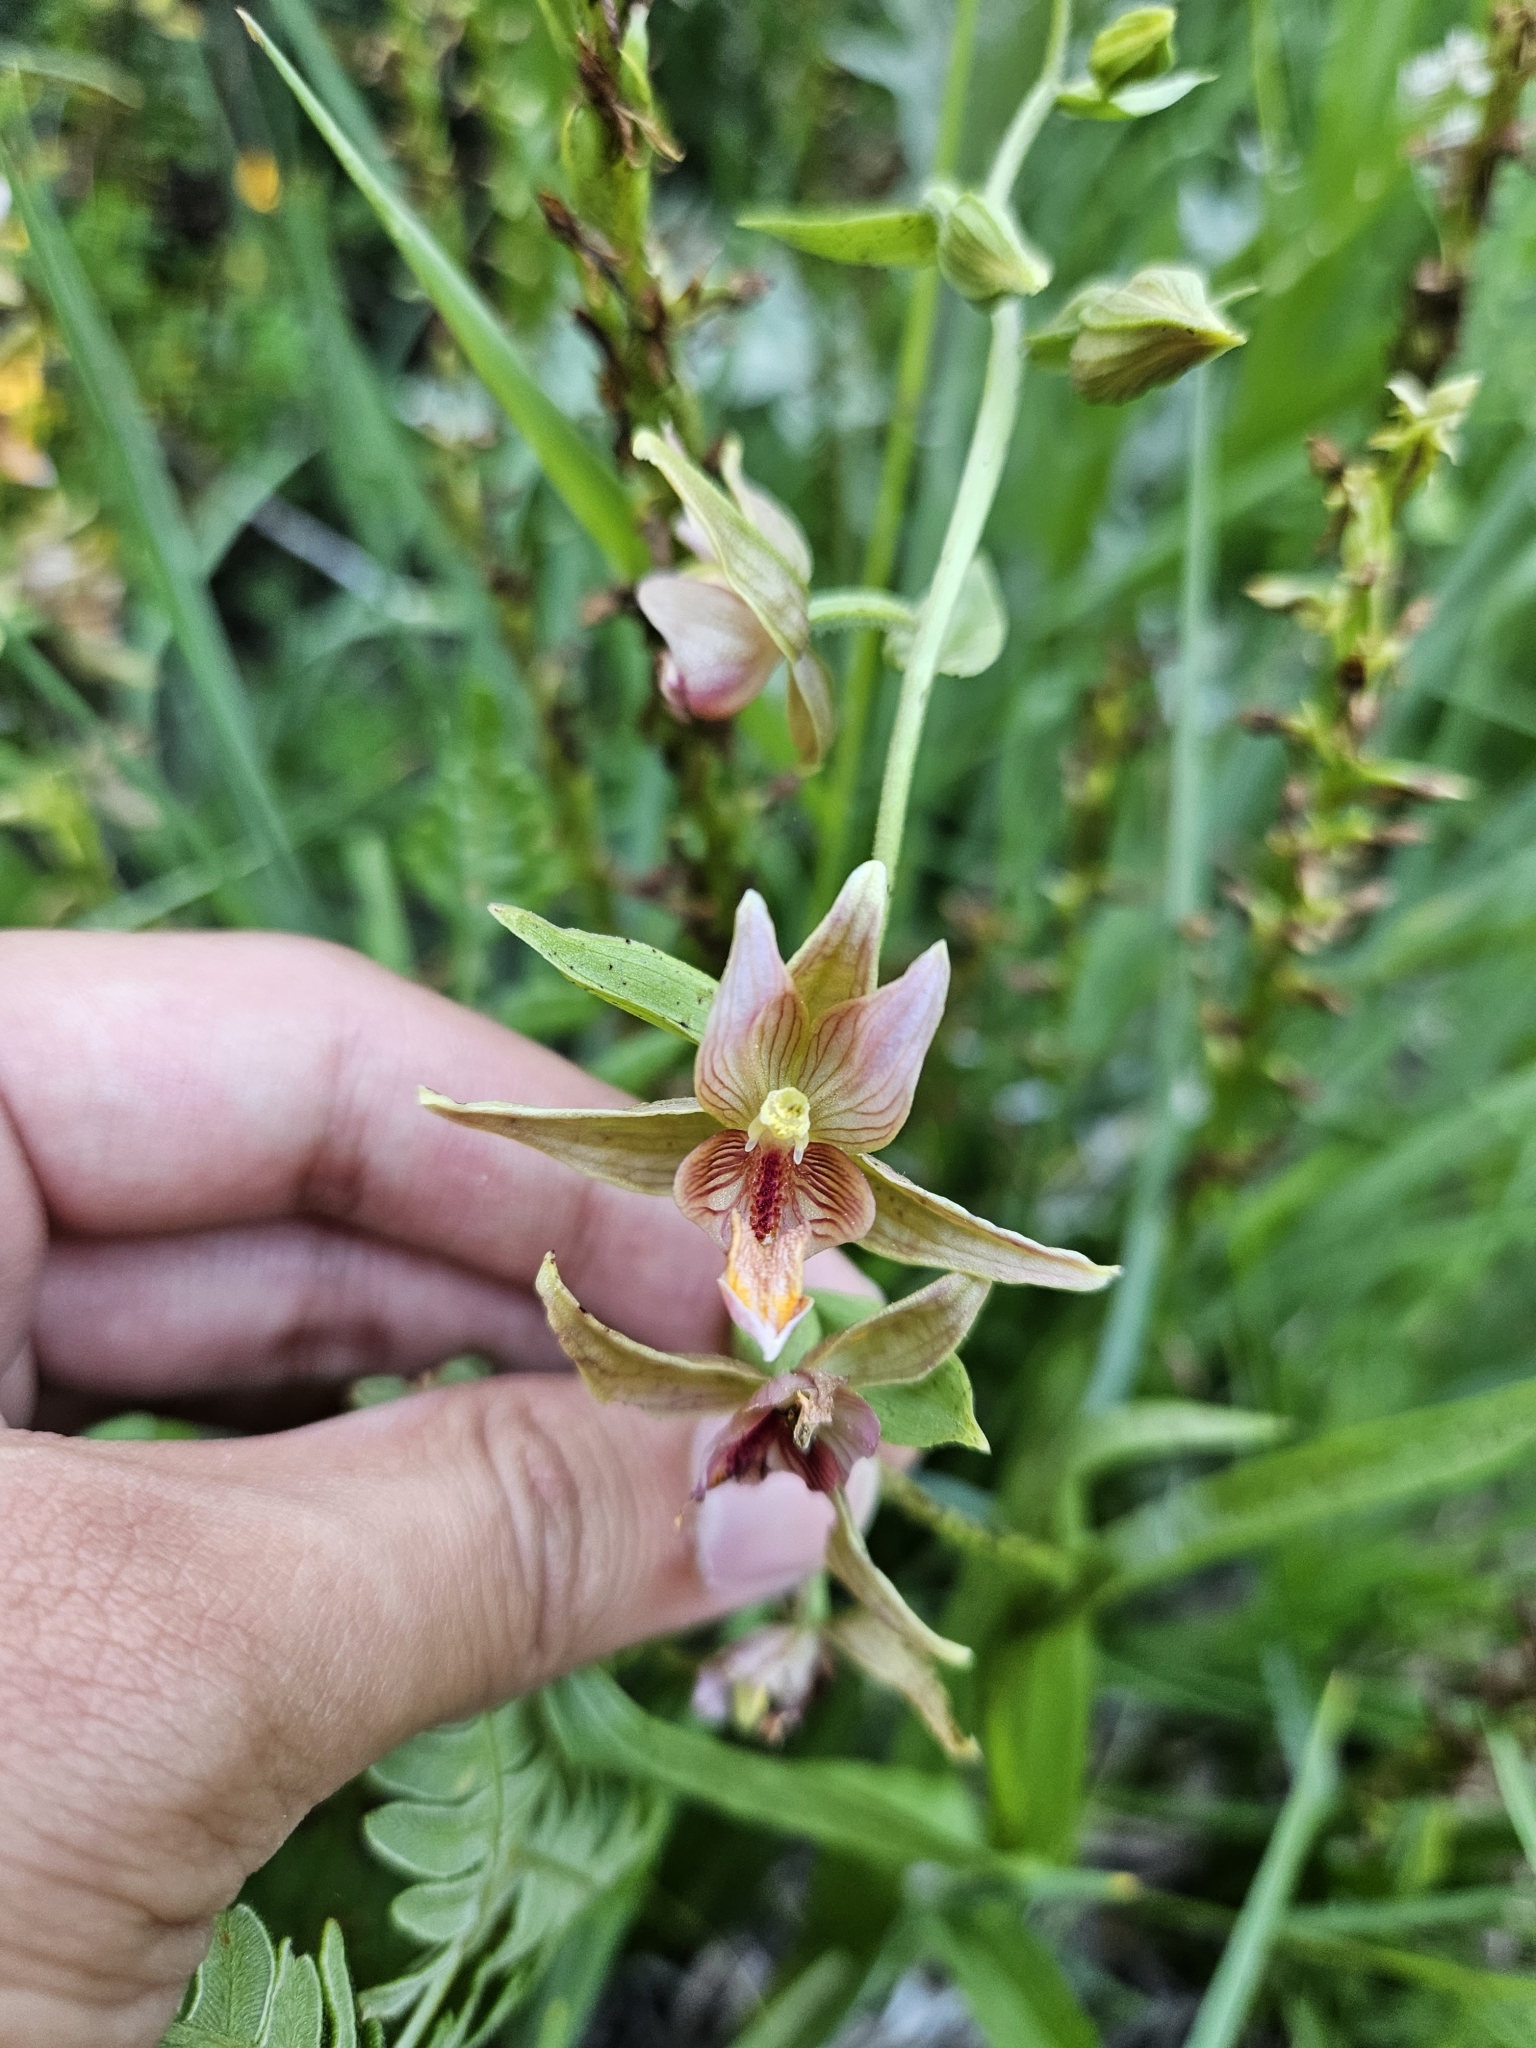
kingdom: Plantae
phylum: Tracheophyta
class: Liliopsida
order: Asparagales
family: Orchidaceae
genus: Epipactis
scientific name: Epipactis gigantea
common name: Chatterbox
